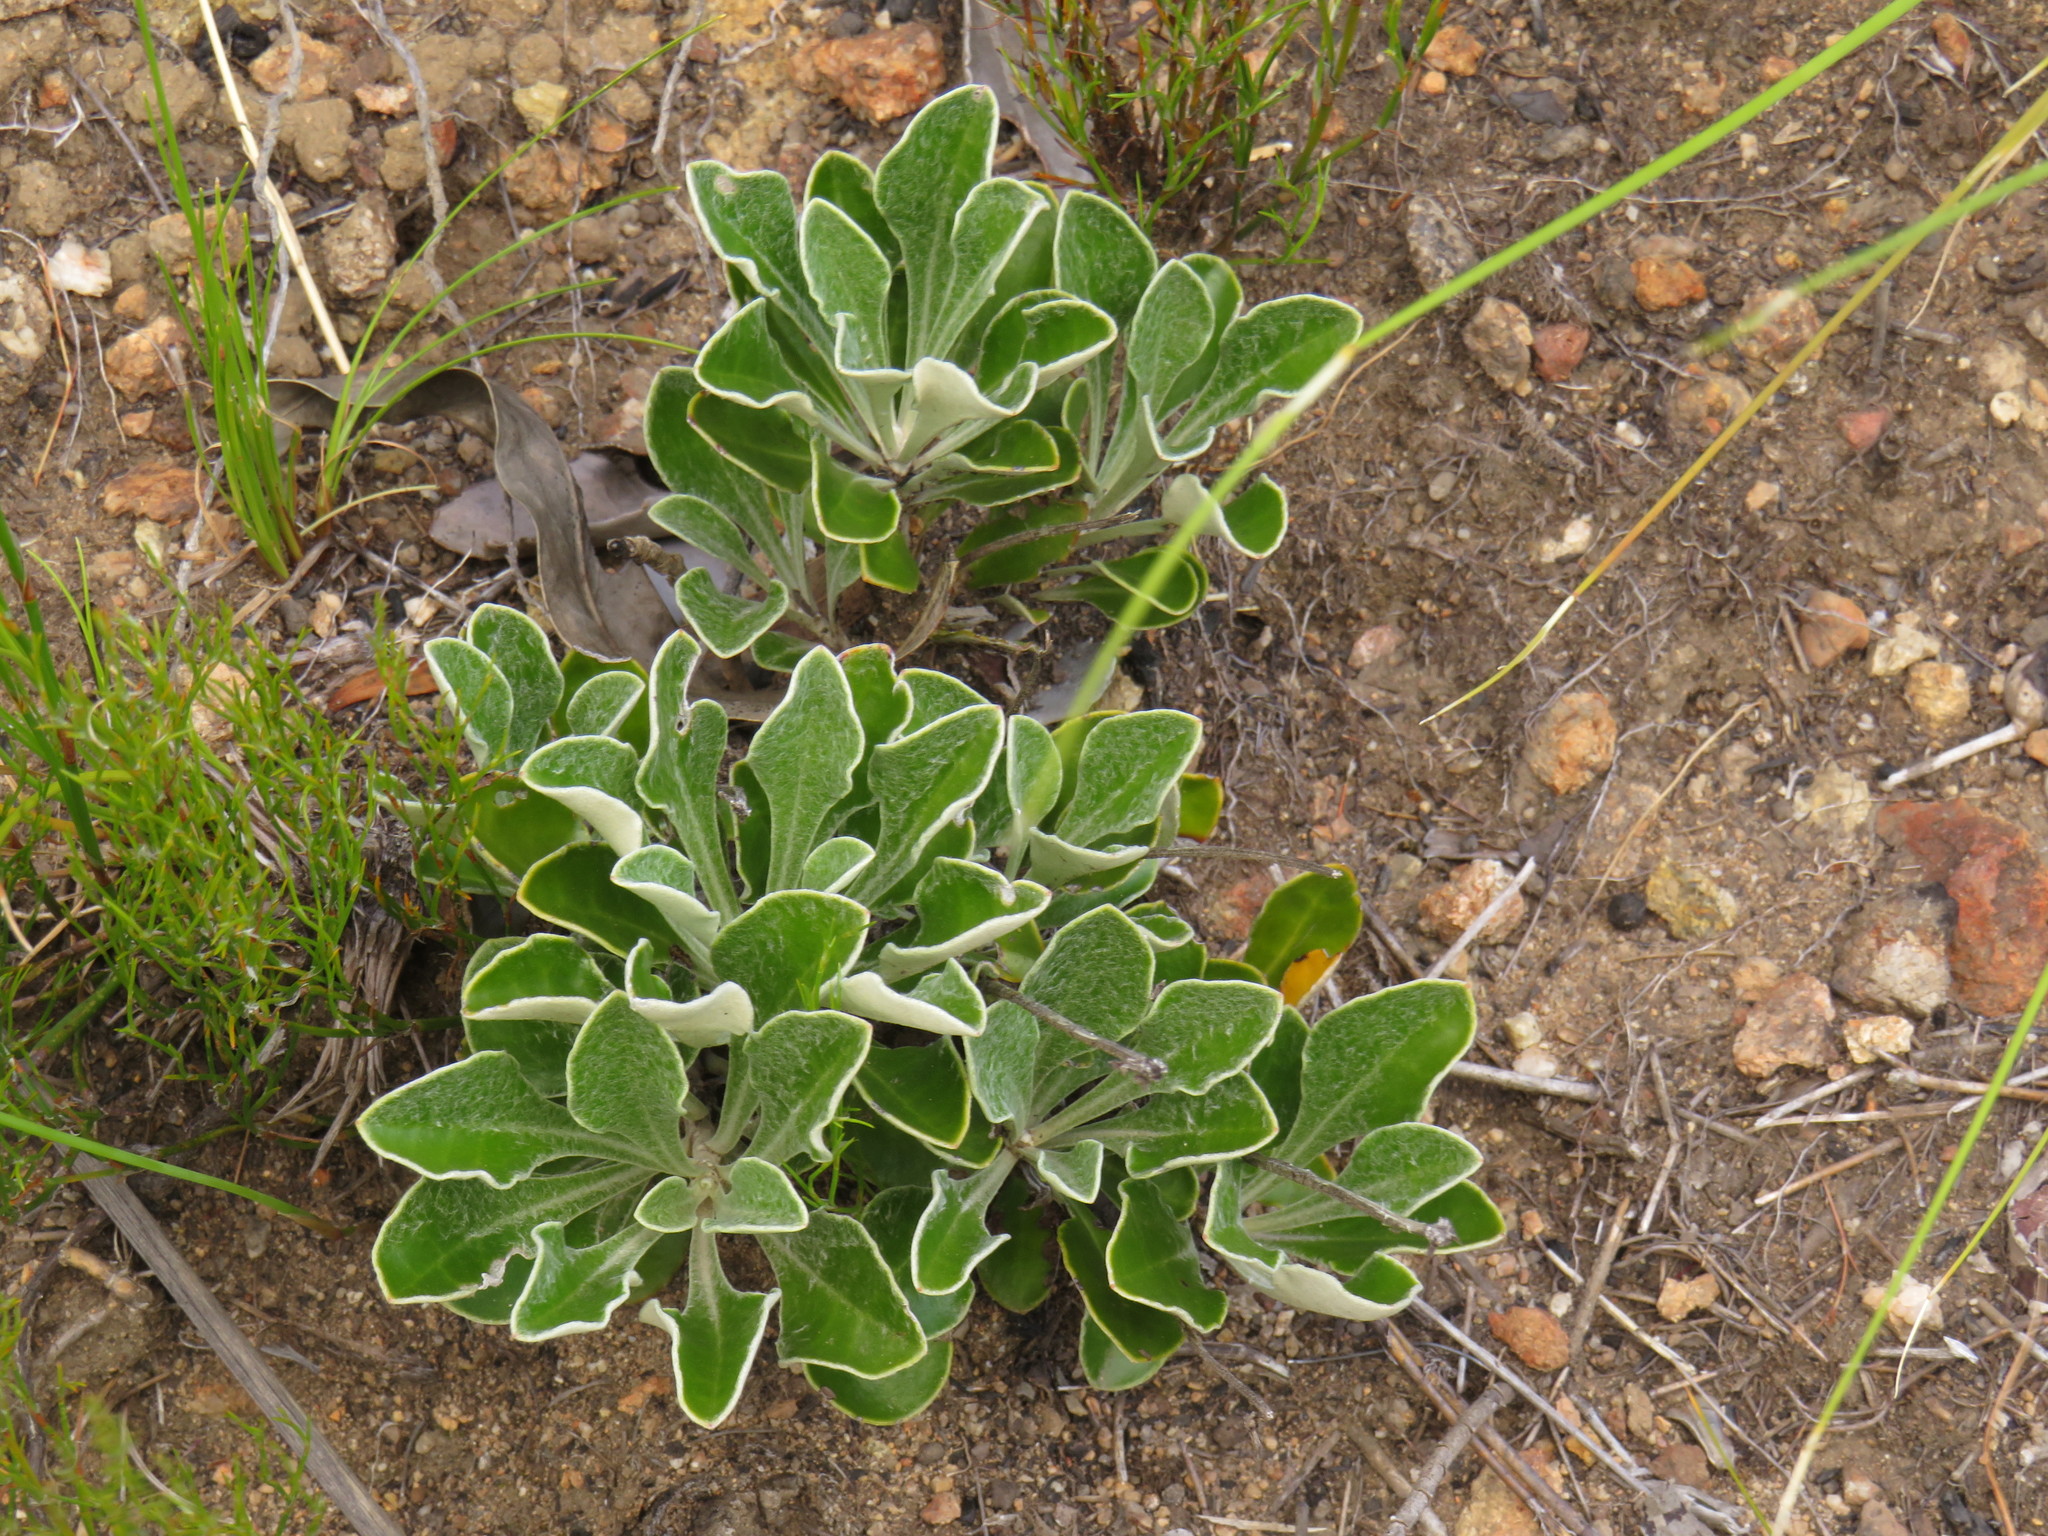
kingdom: Plantae
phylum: Tracheophyta
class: Magnoliopsida
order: Asterales
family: Asteraceae
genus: Osteospermum
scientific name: Osteospermum tomentosum
